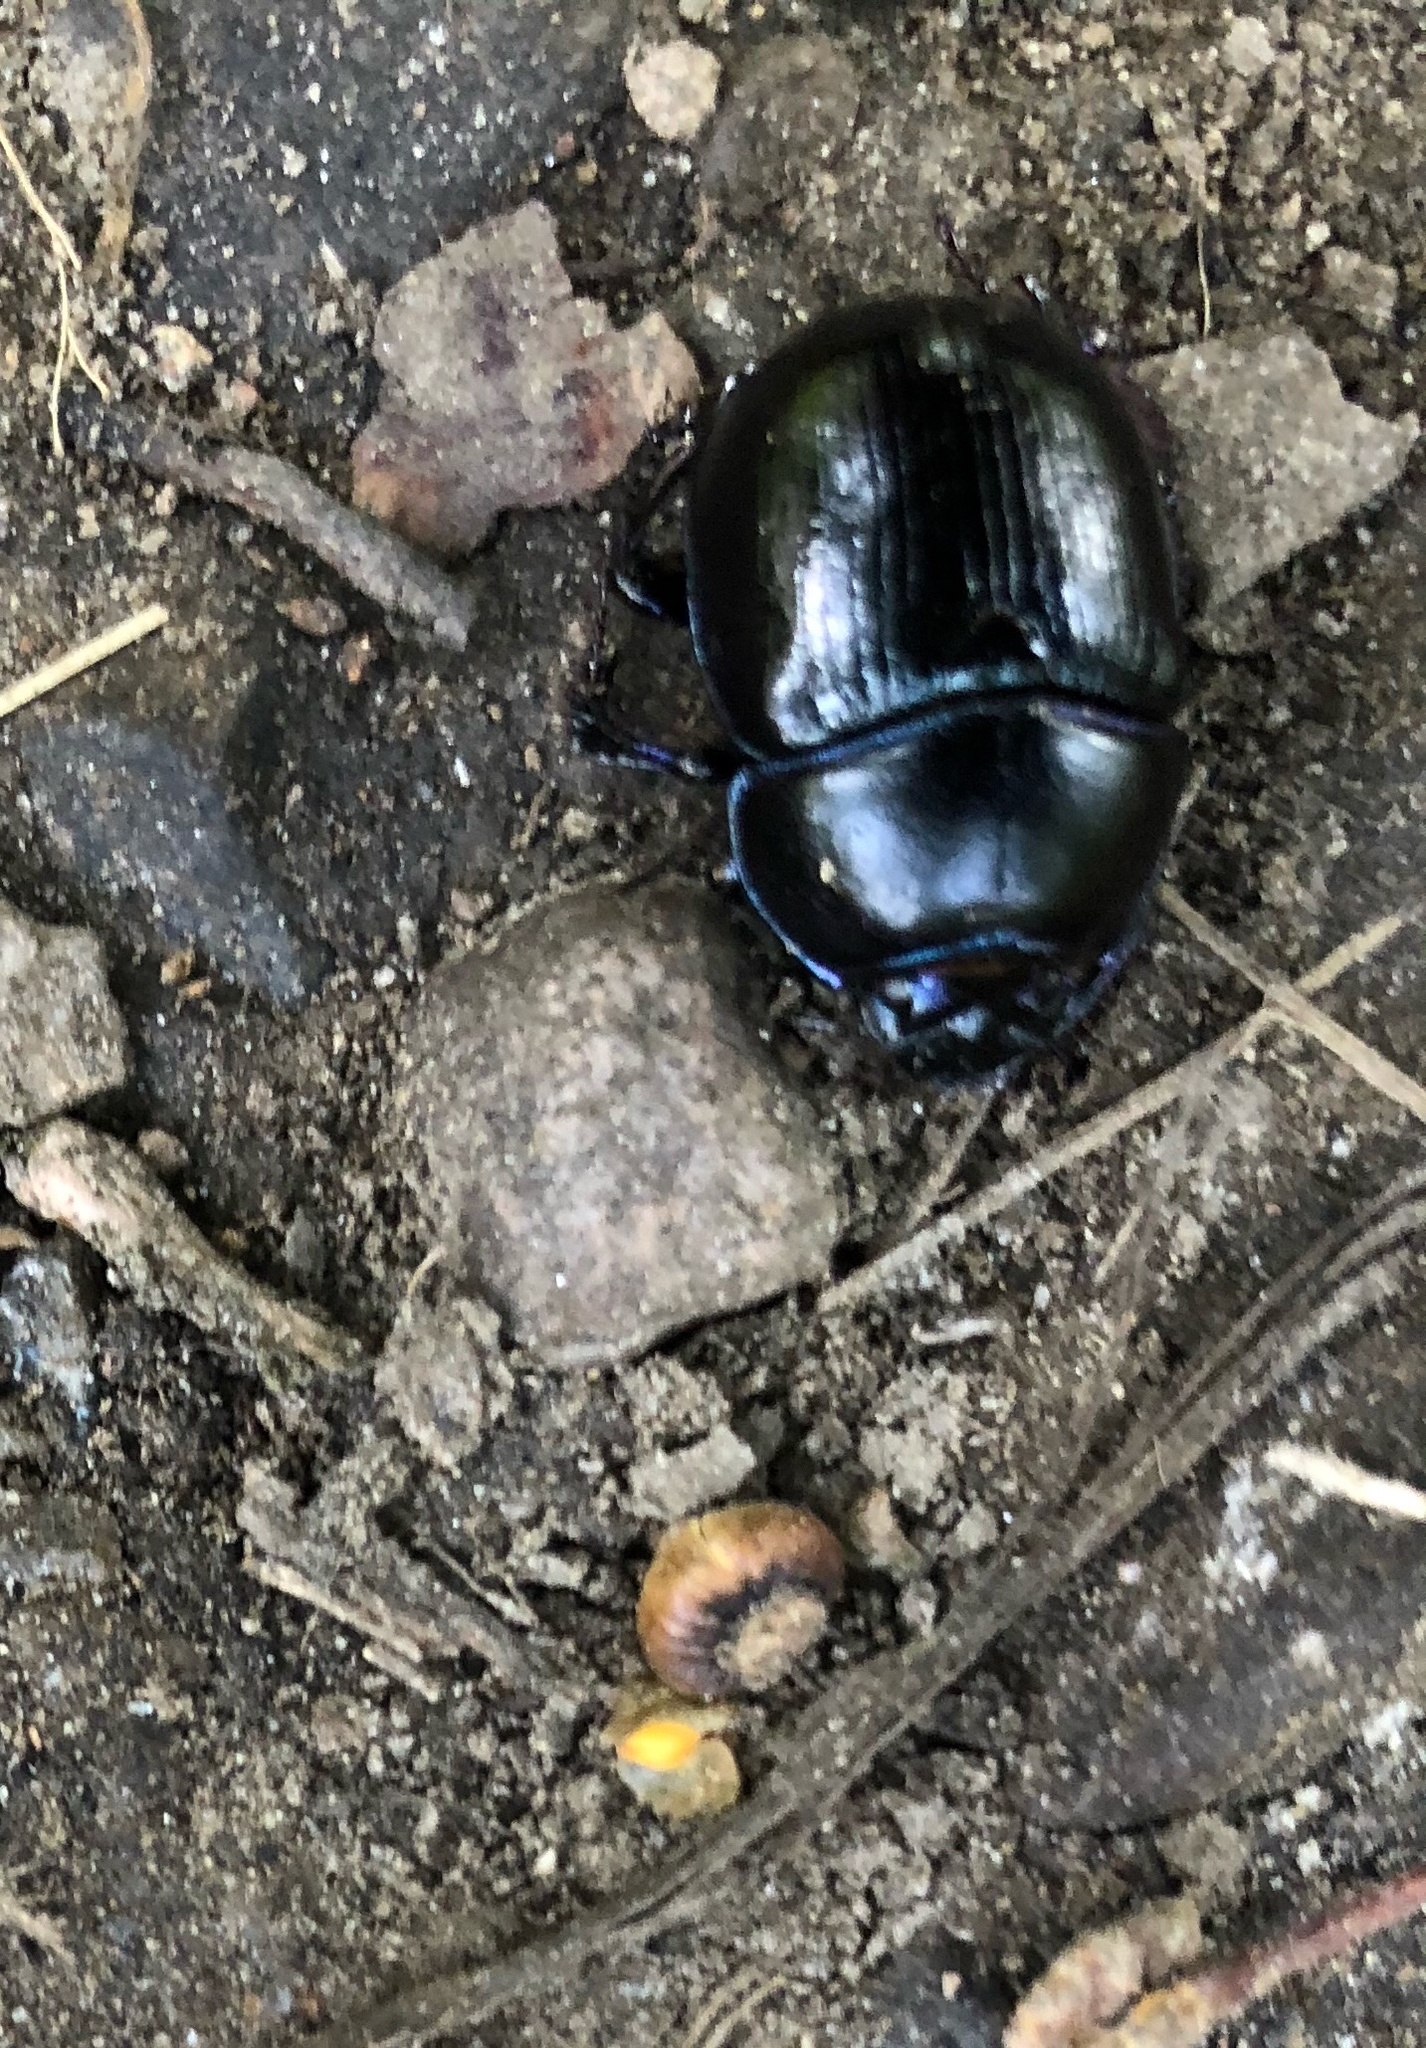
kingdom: Animalia
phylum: Arthropoda
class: Insecta
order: Coleoptera
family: Geotrupidae
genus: Anoplotrupes
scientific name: Anoplotrupes stercorosus
